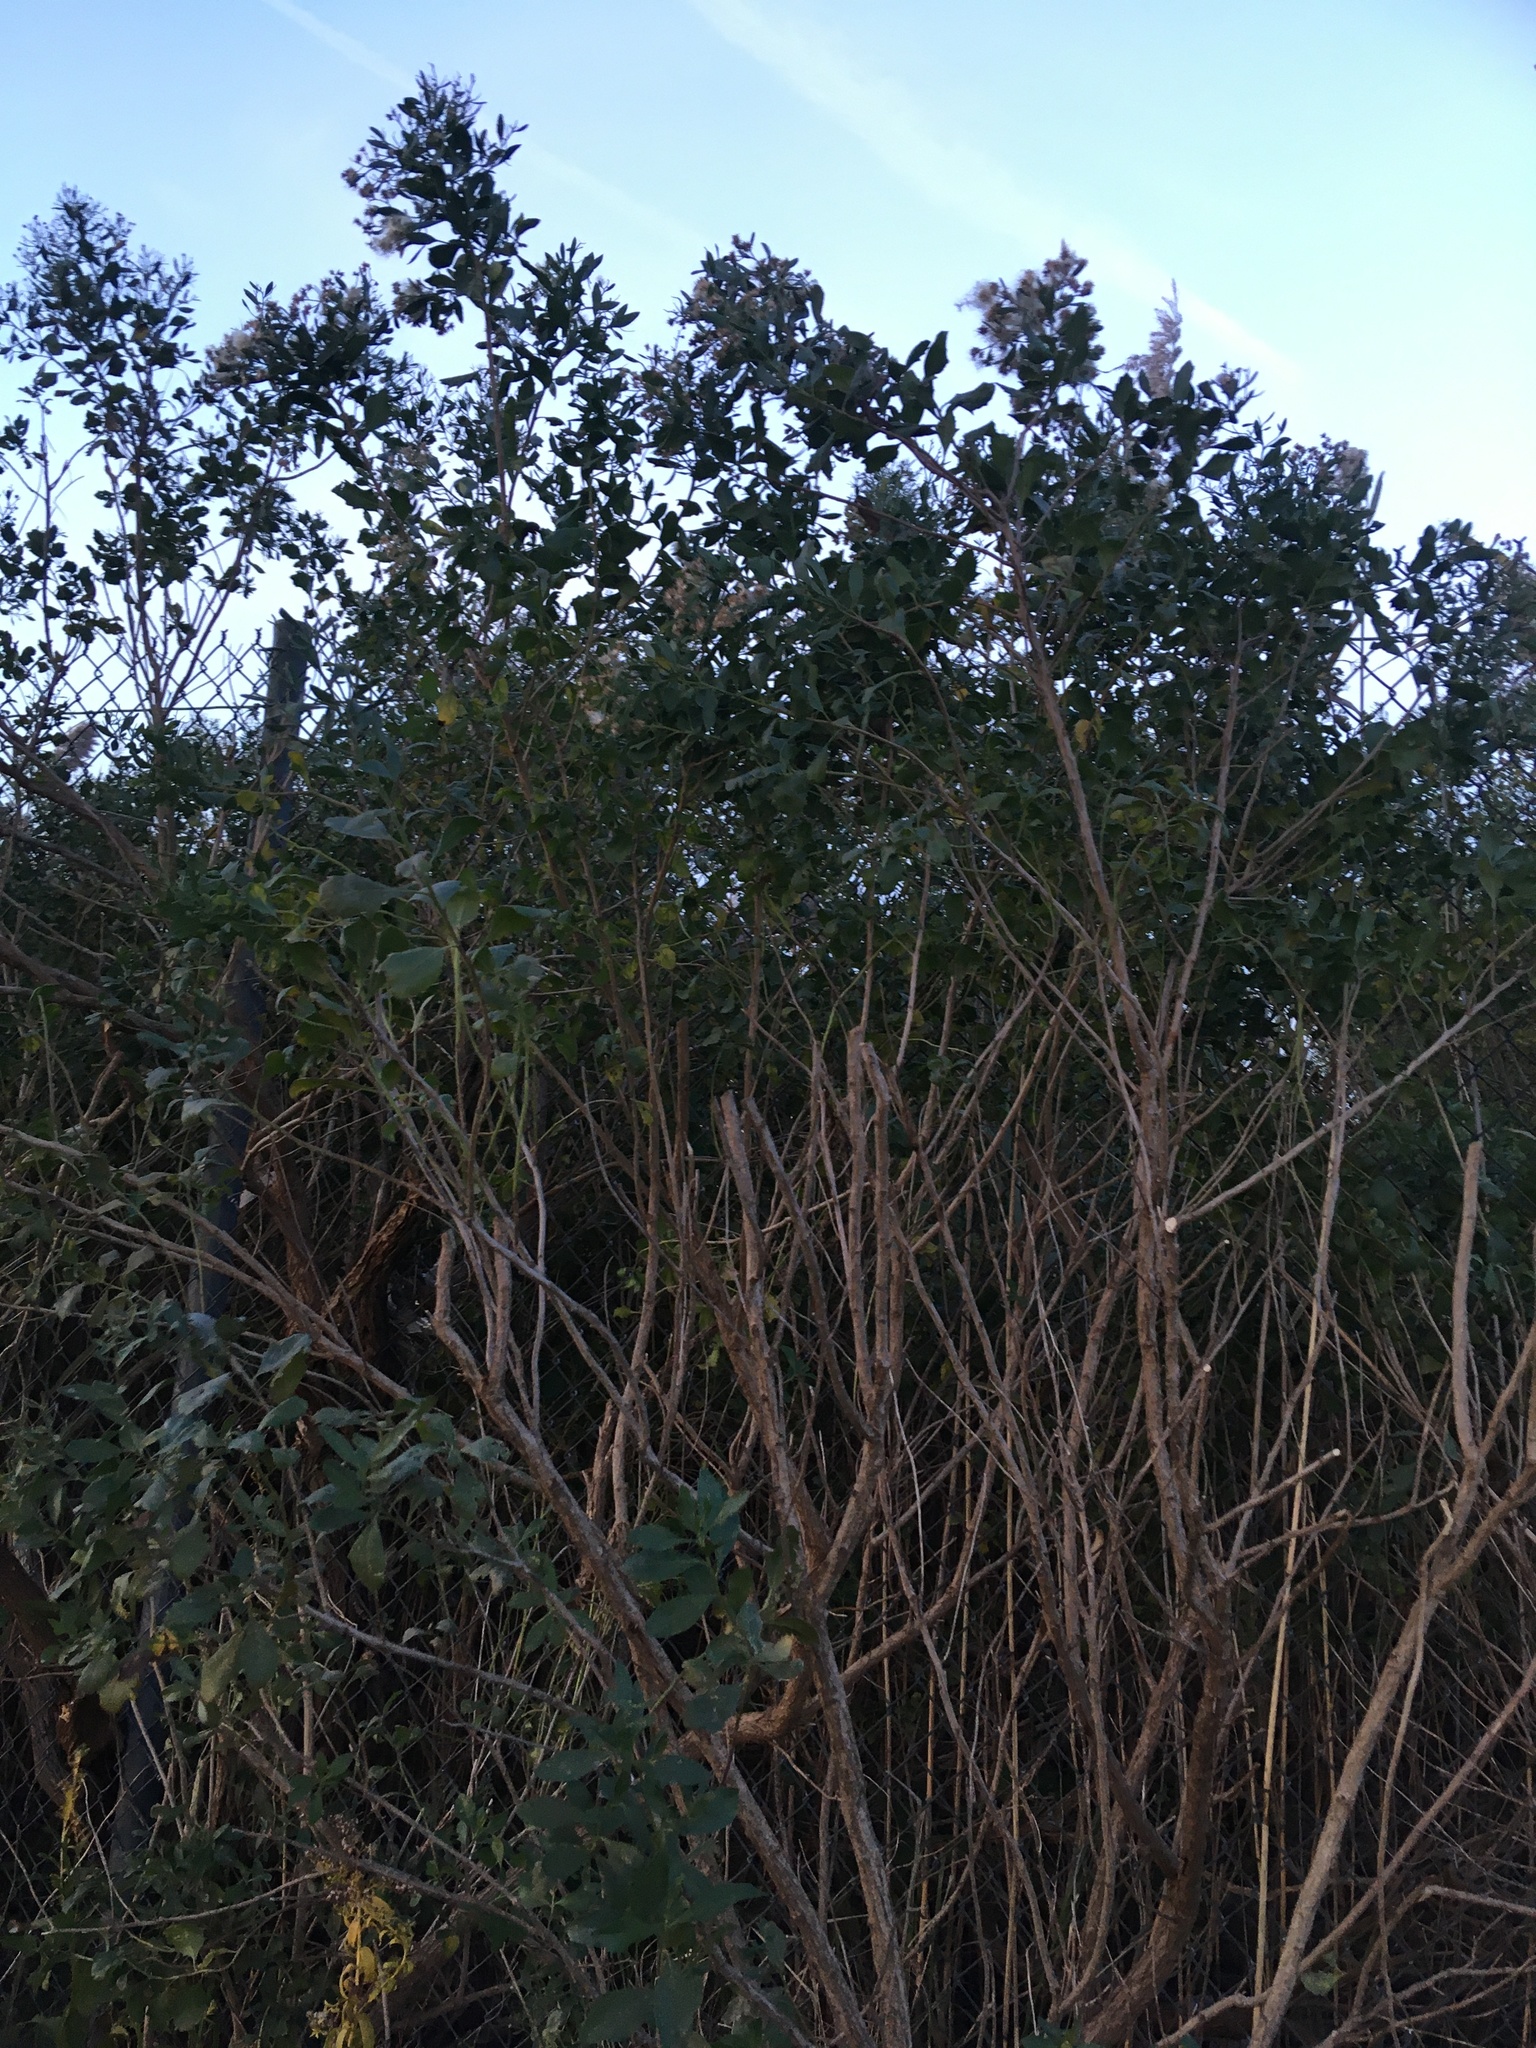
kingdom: Plantae
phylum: Tracheophyta
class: Magnoliopsida
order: Asterales
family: Asteraceae
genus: Baccharis
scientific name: Baccharis halimifolia
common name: Eastern baccharis
